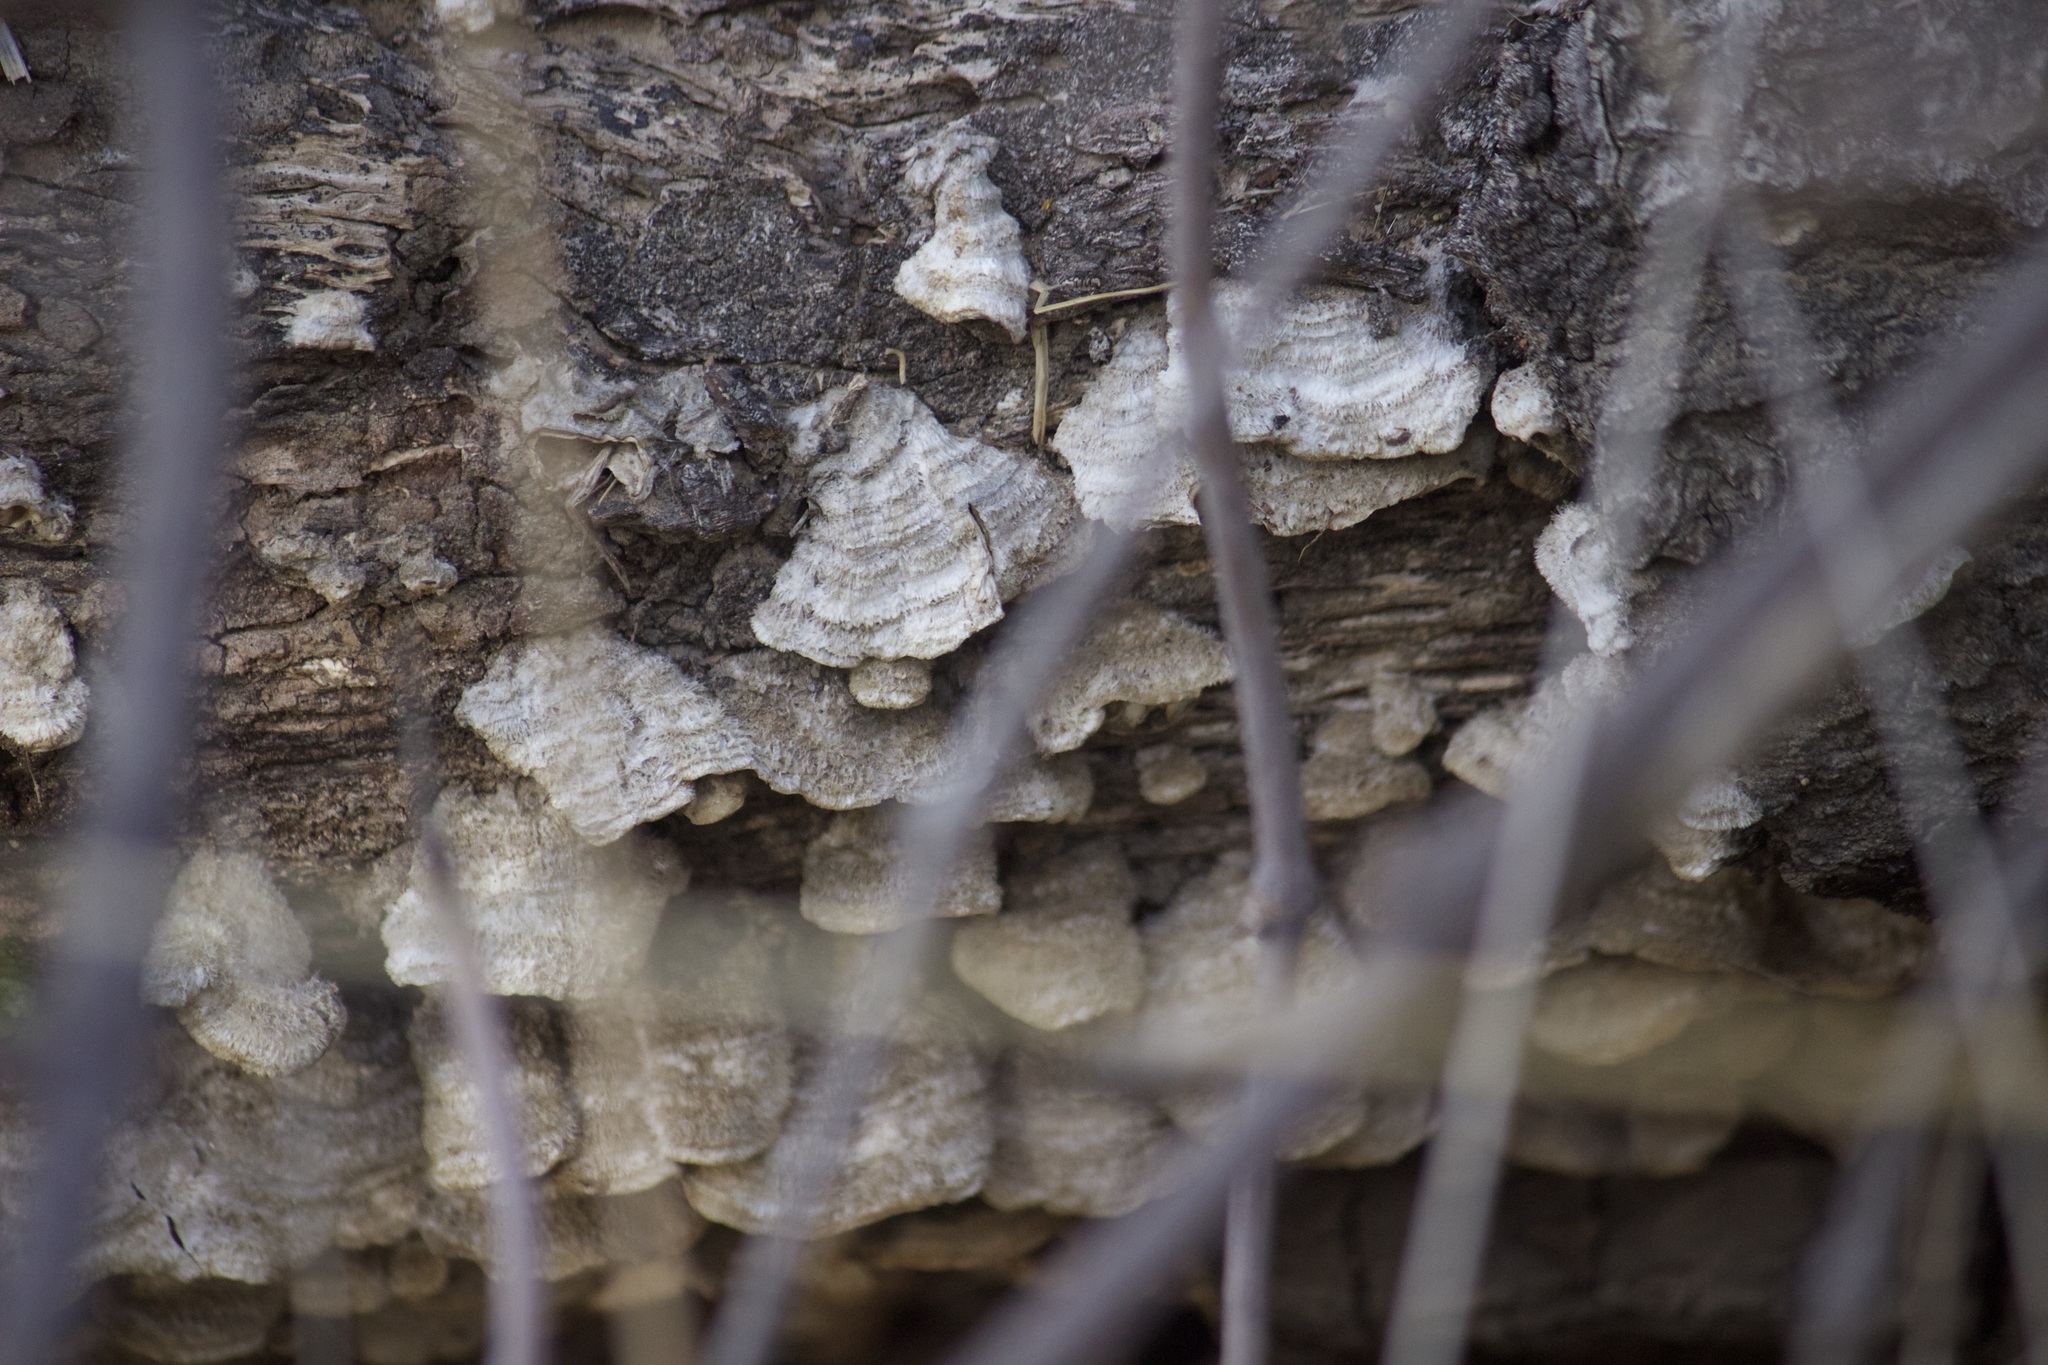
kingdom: Fungi
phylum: Basidiomycota
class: Agaricomycetes
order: Russulales
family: Stereaceae
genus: Stereum
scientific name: Stereum hirsutum
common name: Hairy curtain crust
